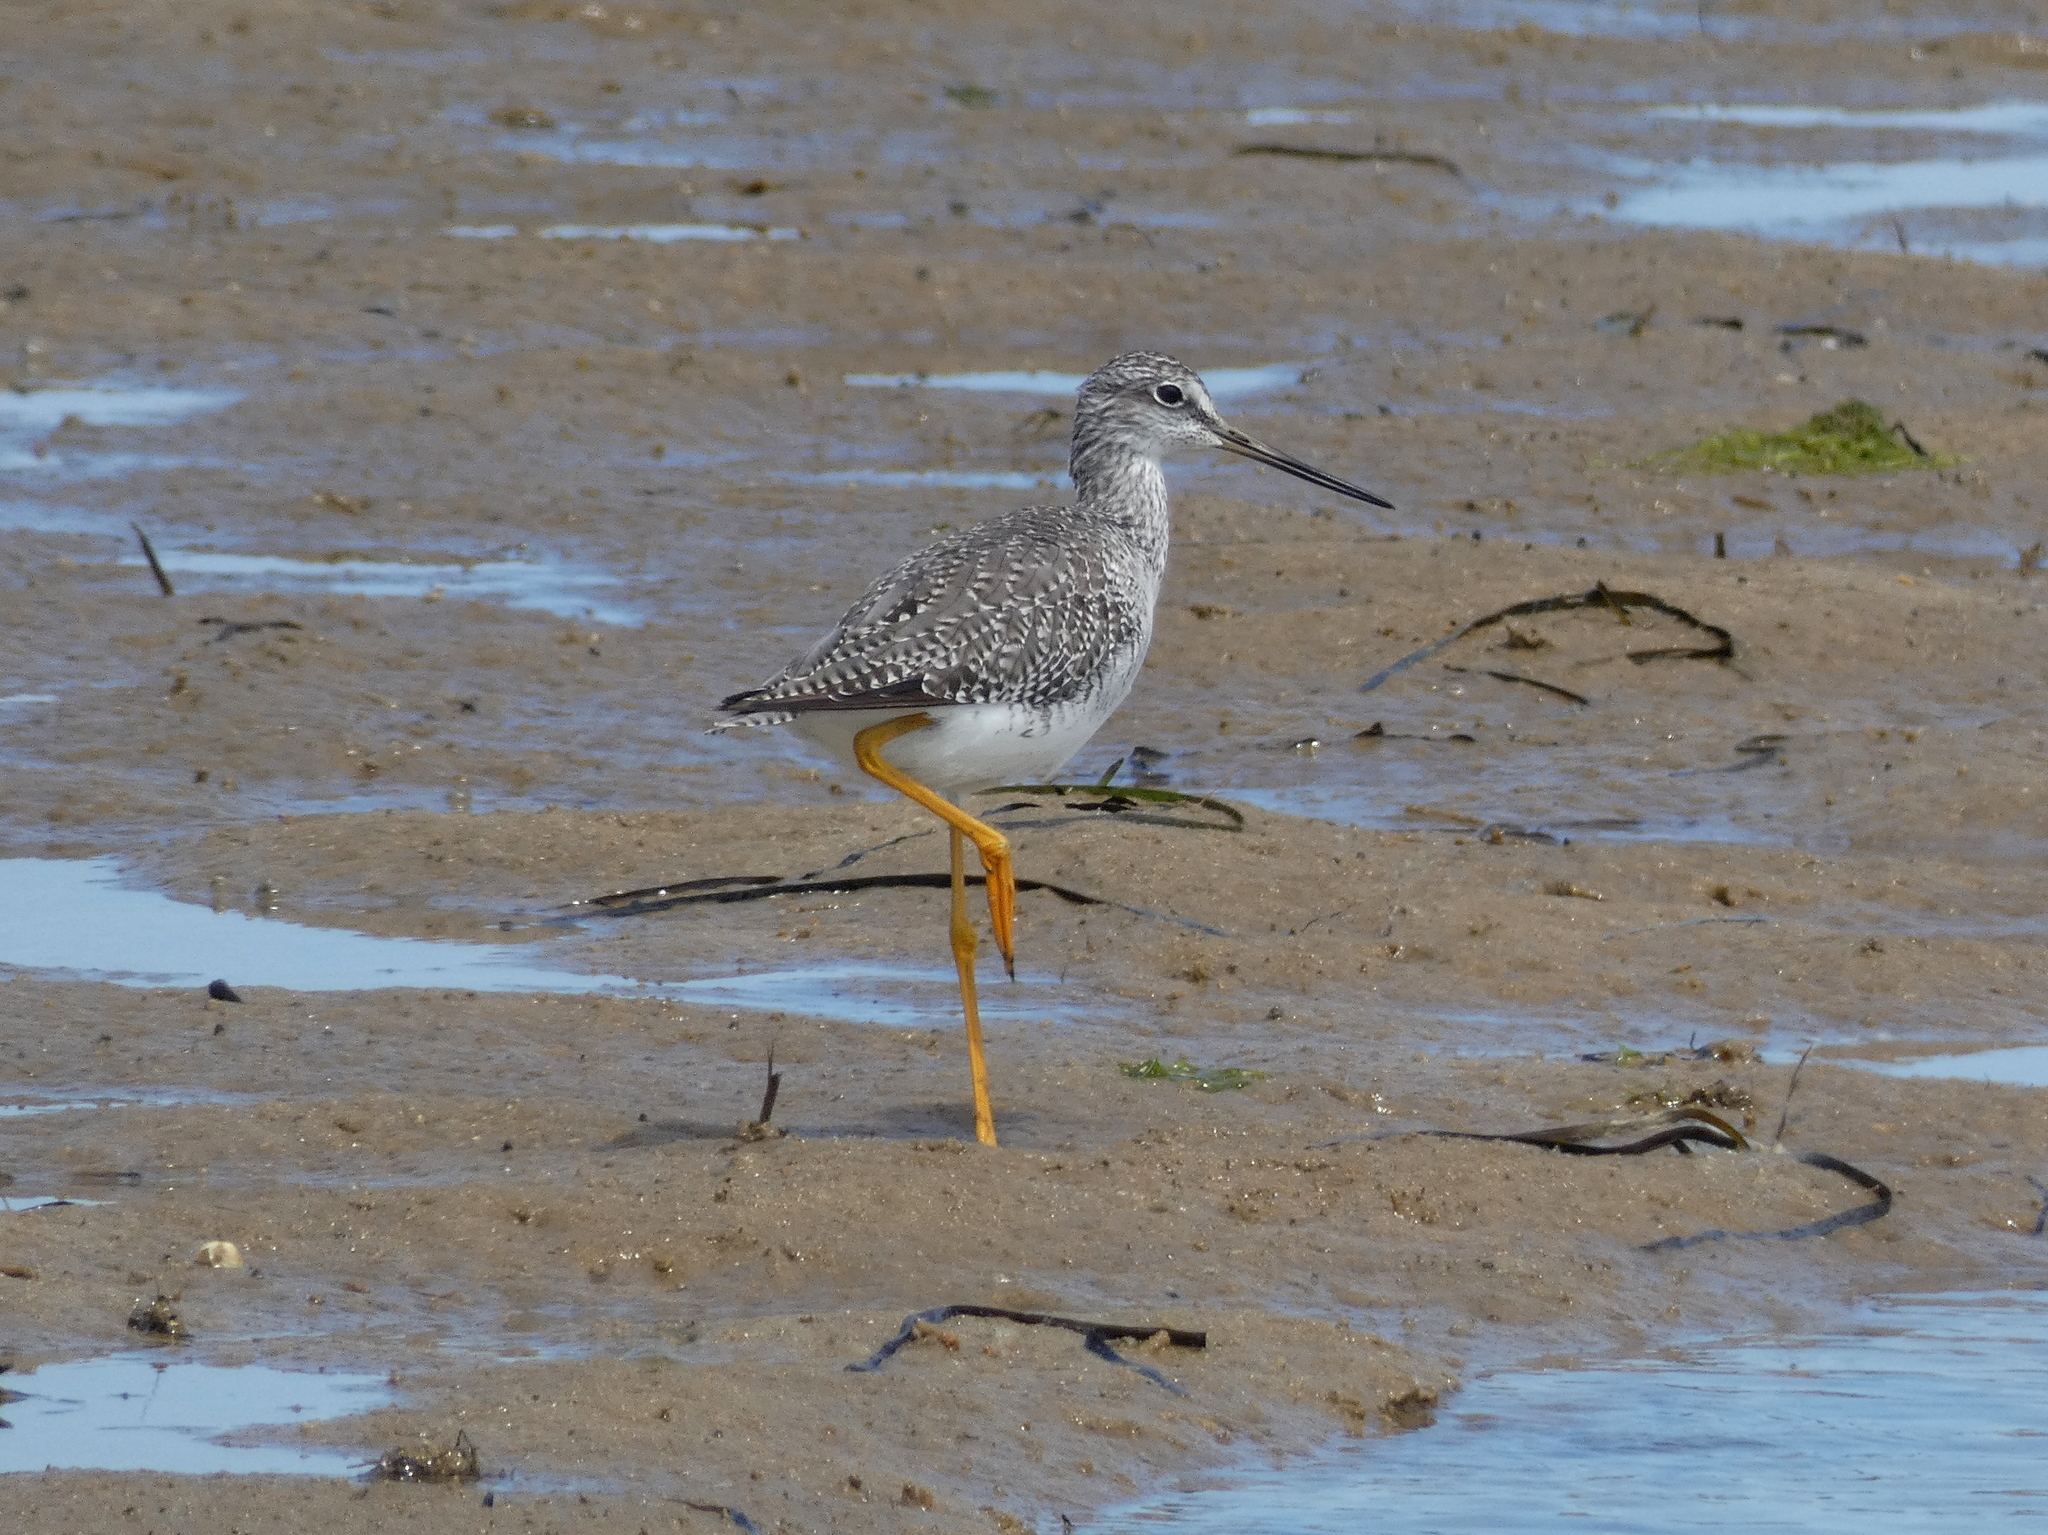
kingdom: Animalia
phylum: Chordata
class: Aves
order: Charadriiformes
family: Scolopacidae
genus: Tringa
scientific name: Tringa melanoleuca
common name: Greater yellowlegs
